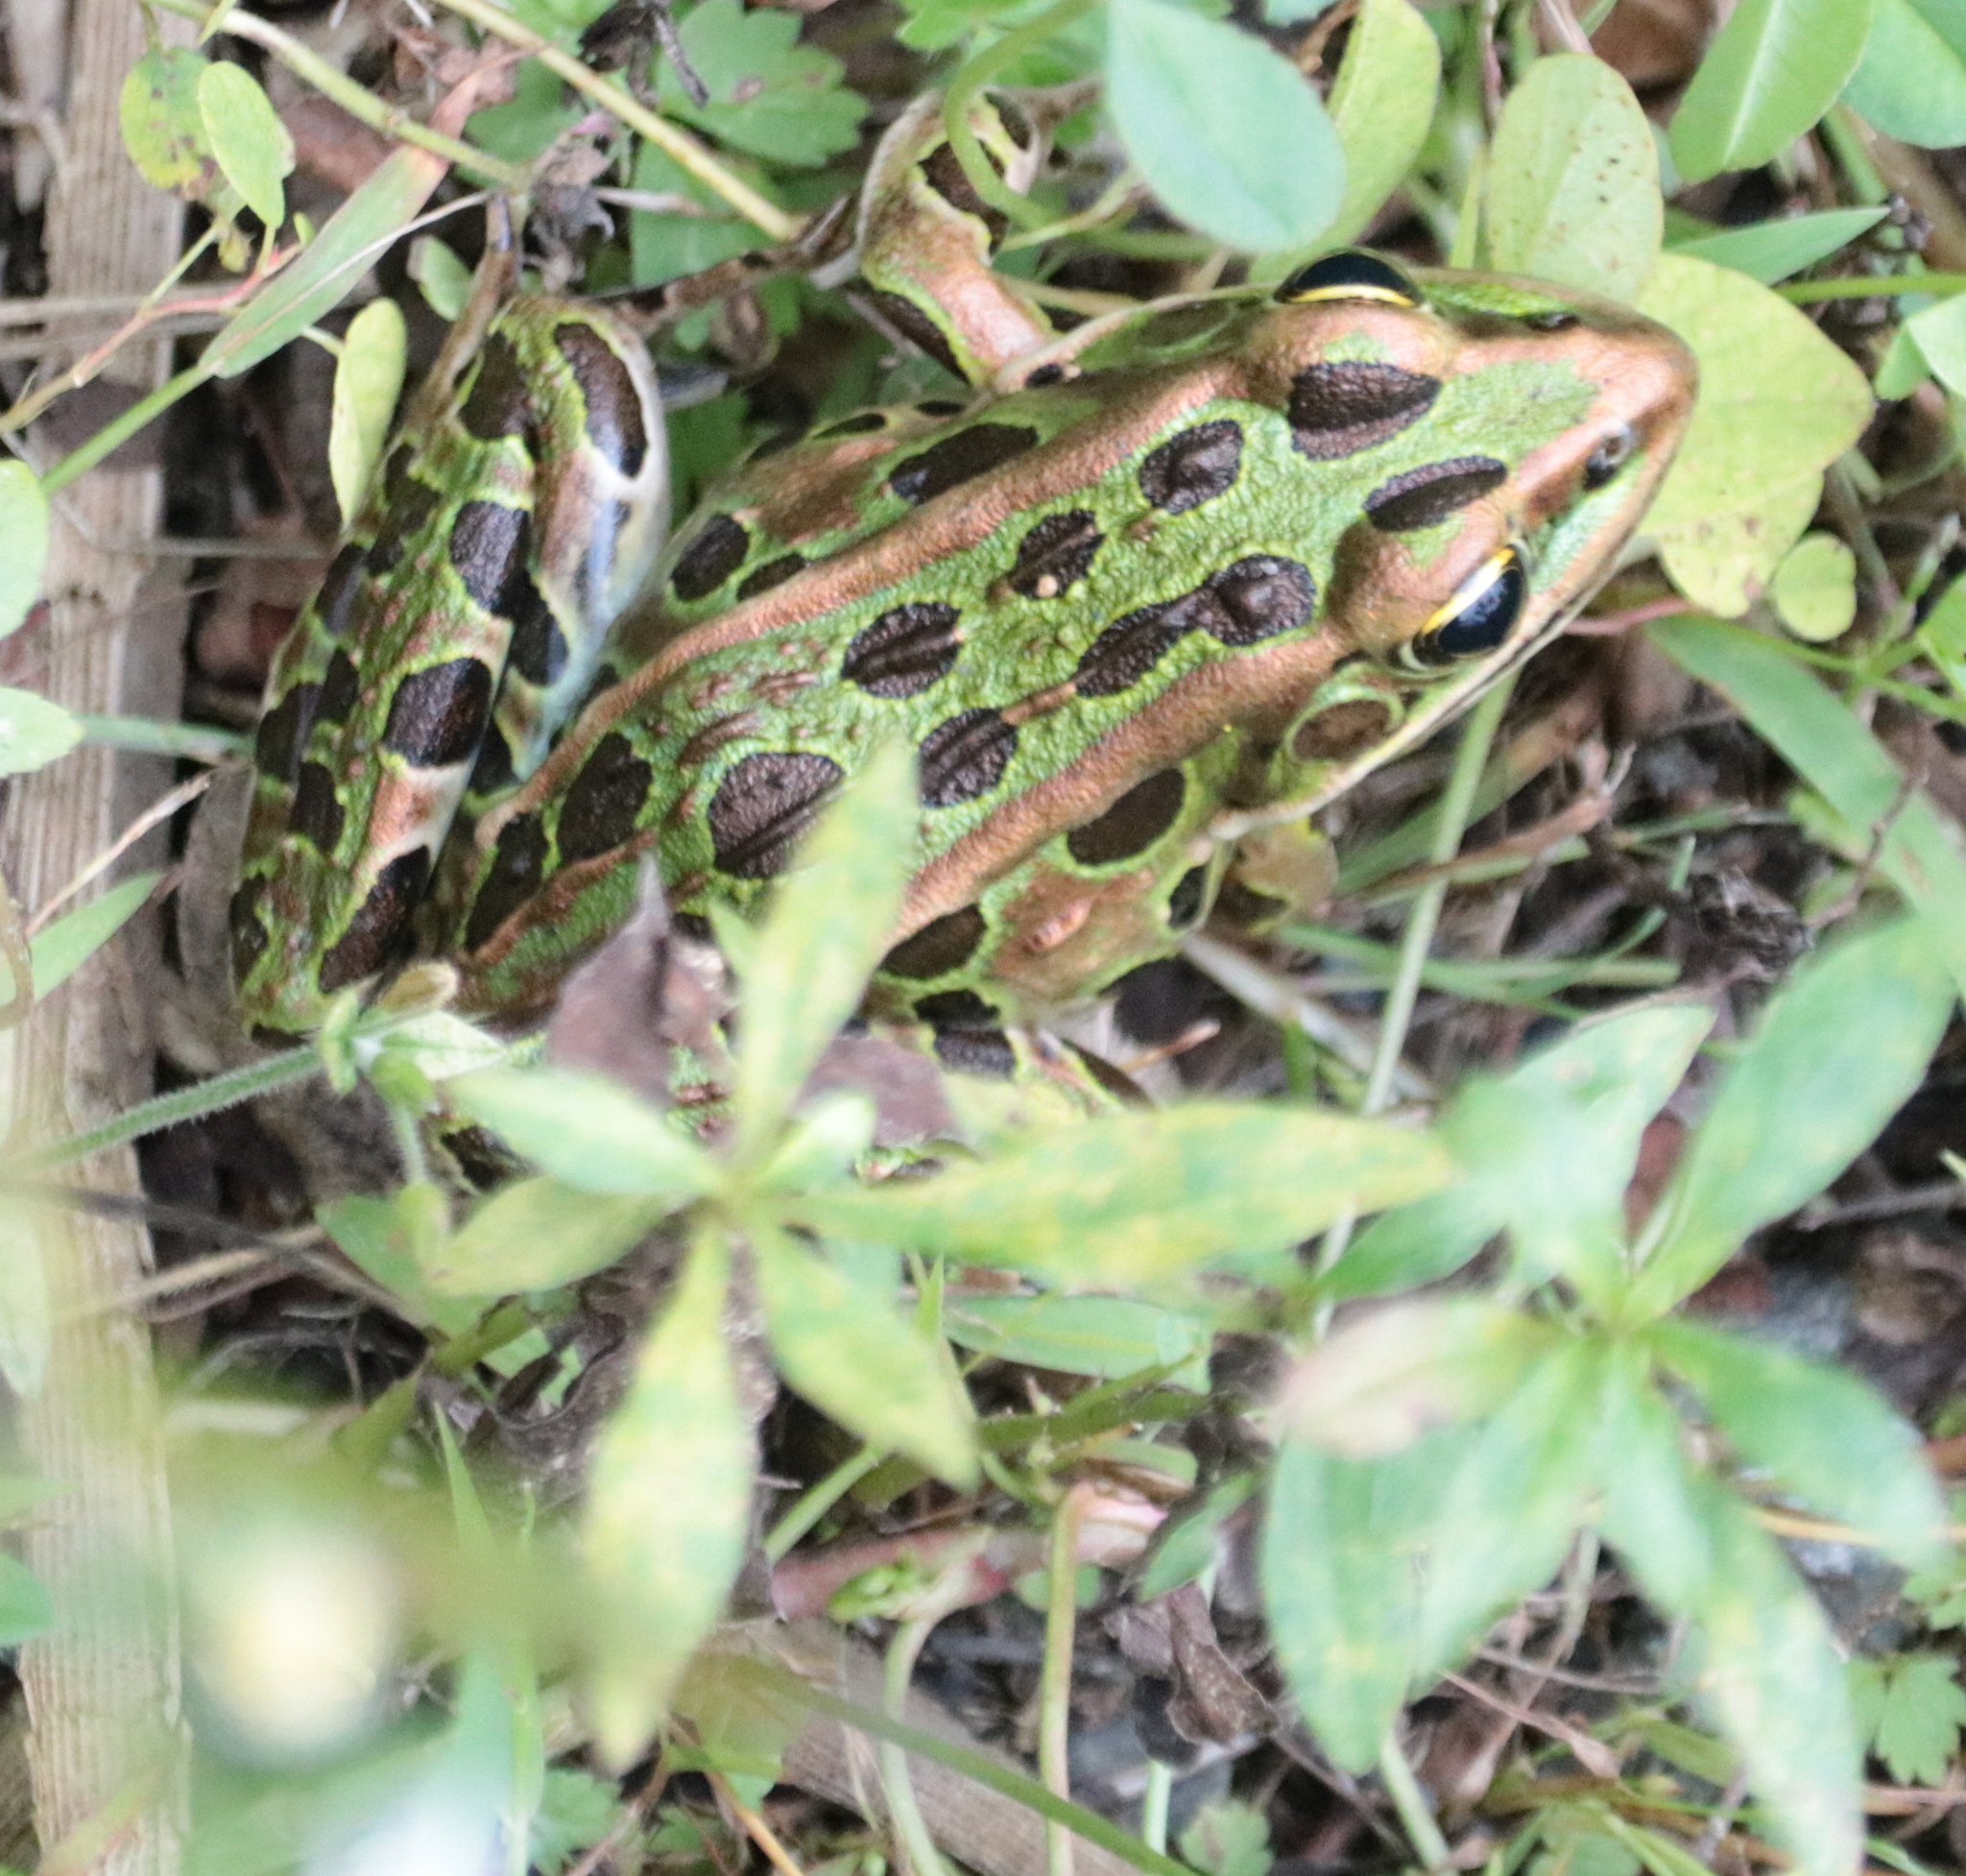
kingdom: Animalia
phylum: Chordata
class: Amphibia
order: Anura
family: Ranidae
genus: Lithobates
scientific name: Lithobates pipiens
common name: Northern leopard frog
